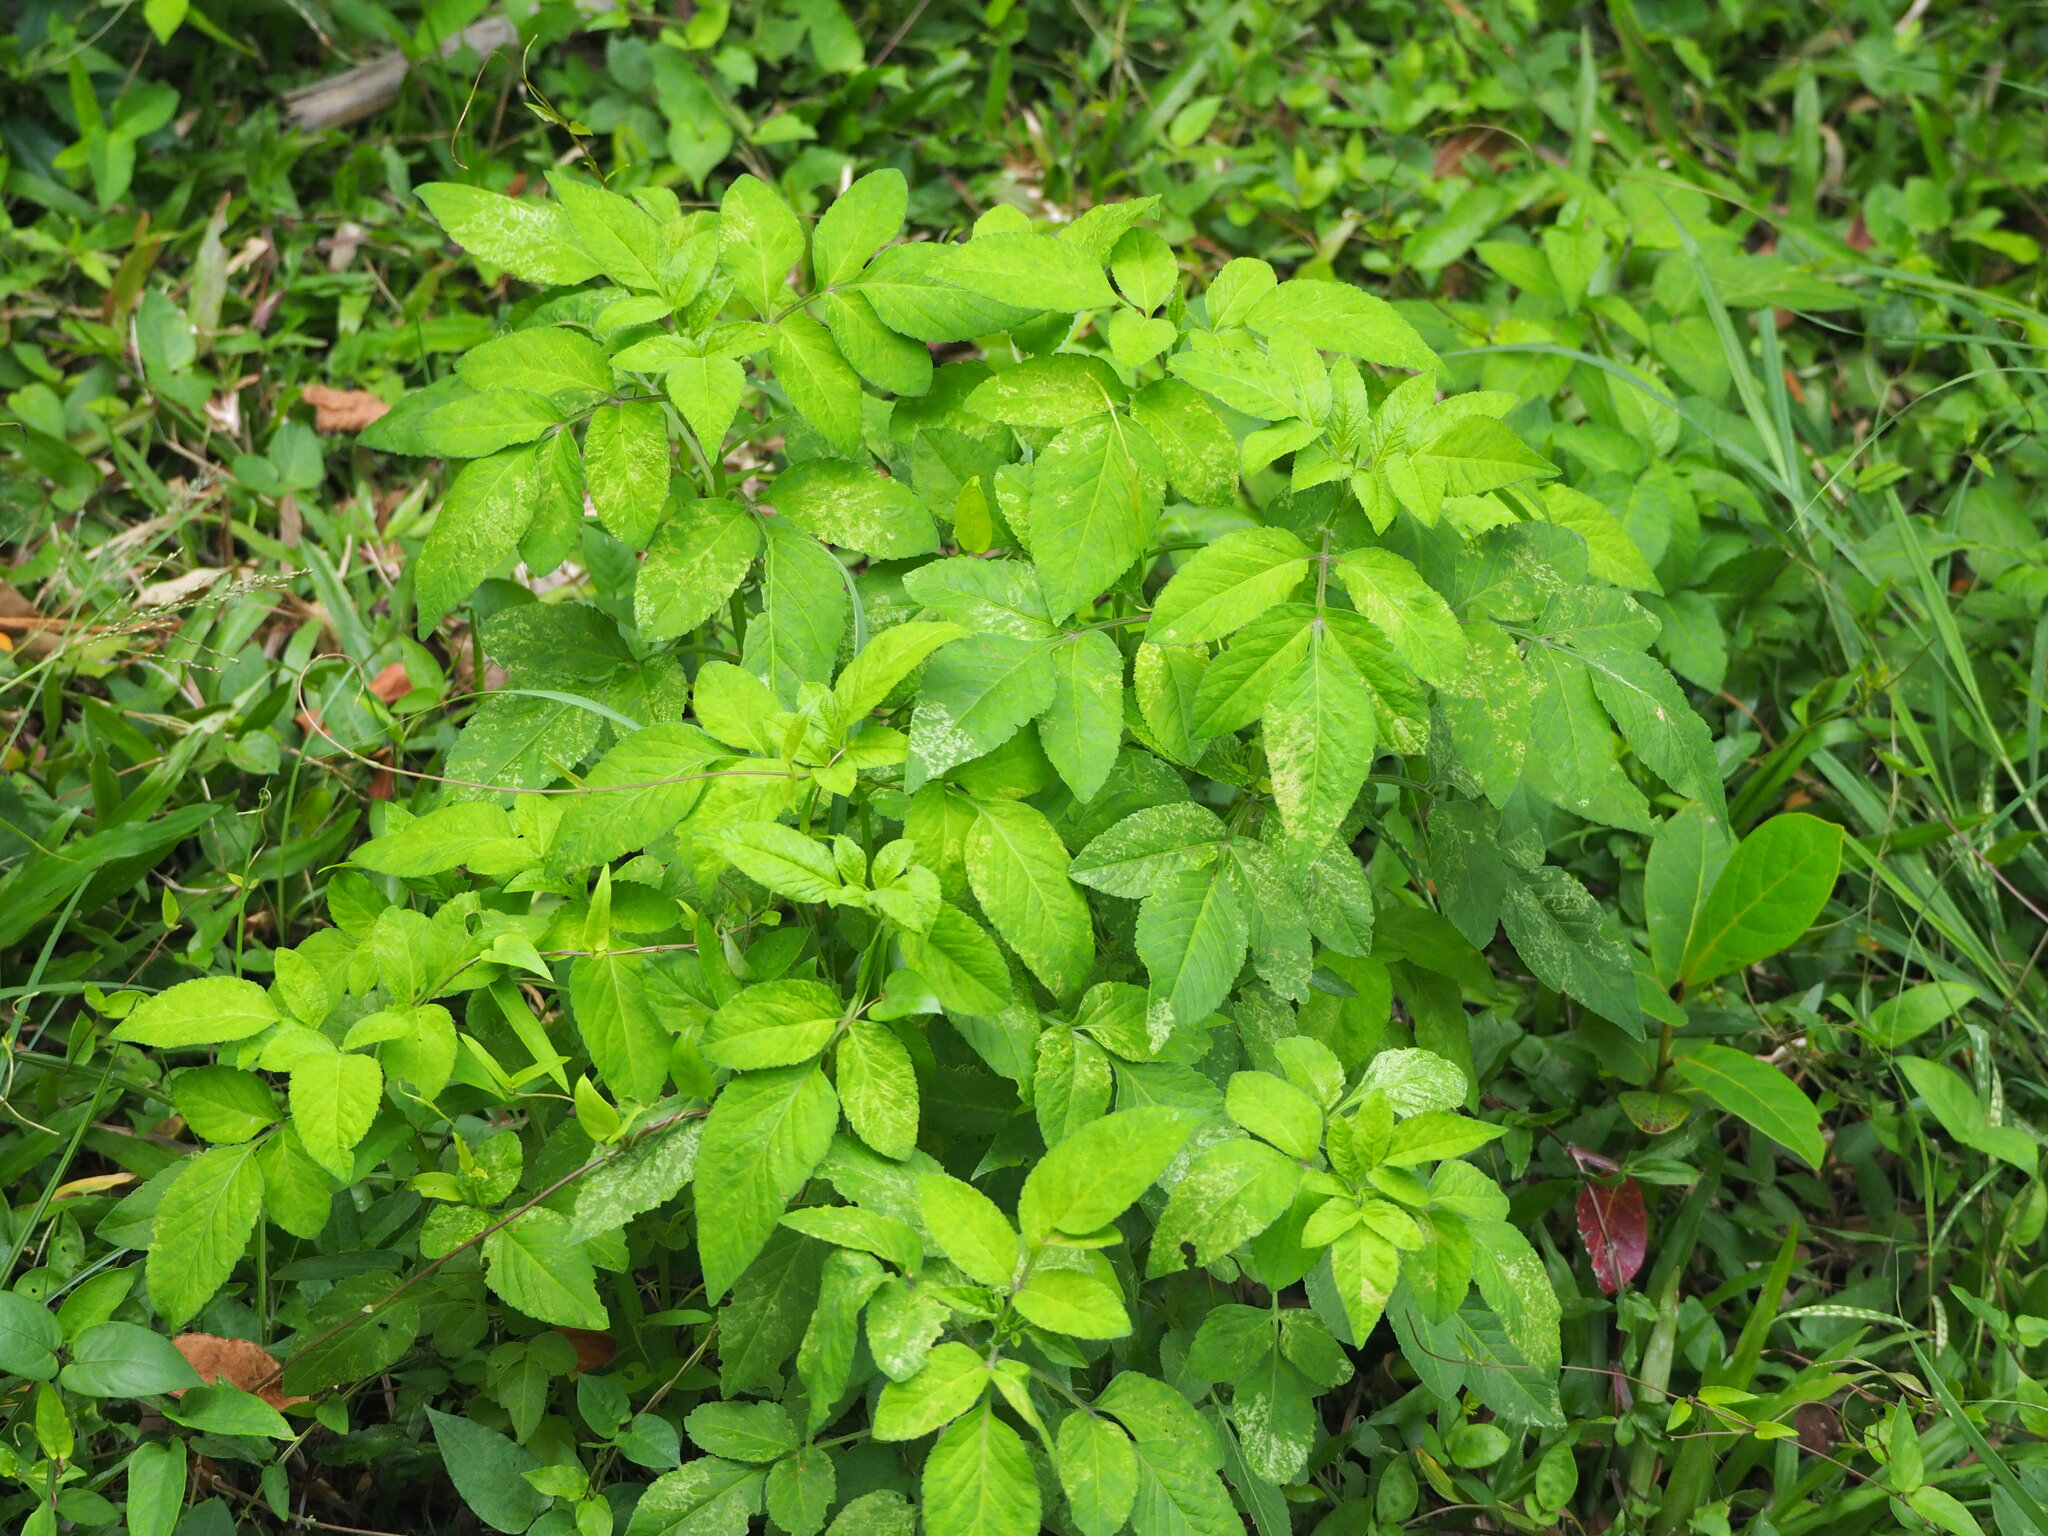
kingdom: Plantae
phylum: Tracheophyta
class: Magnoliopsida
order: Asterales
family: Asteraceae
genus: Bidens
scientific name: Bidens alba
